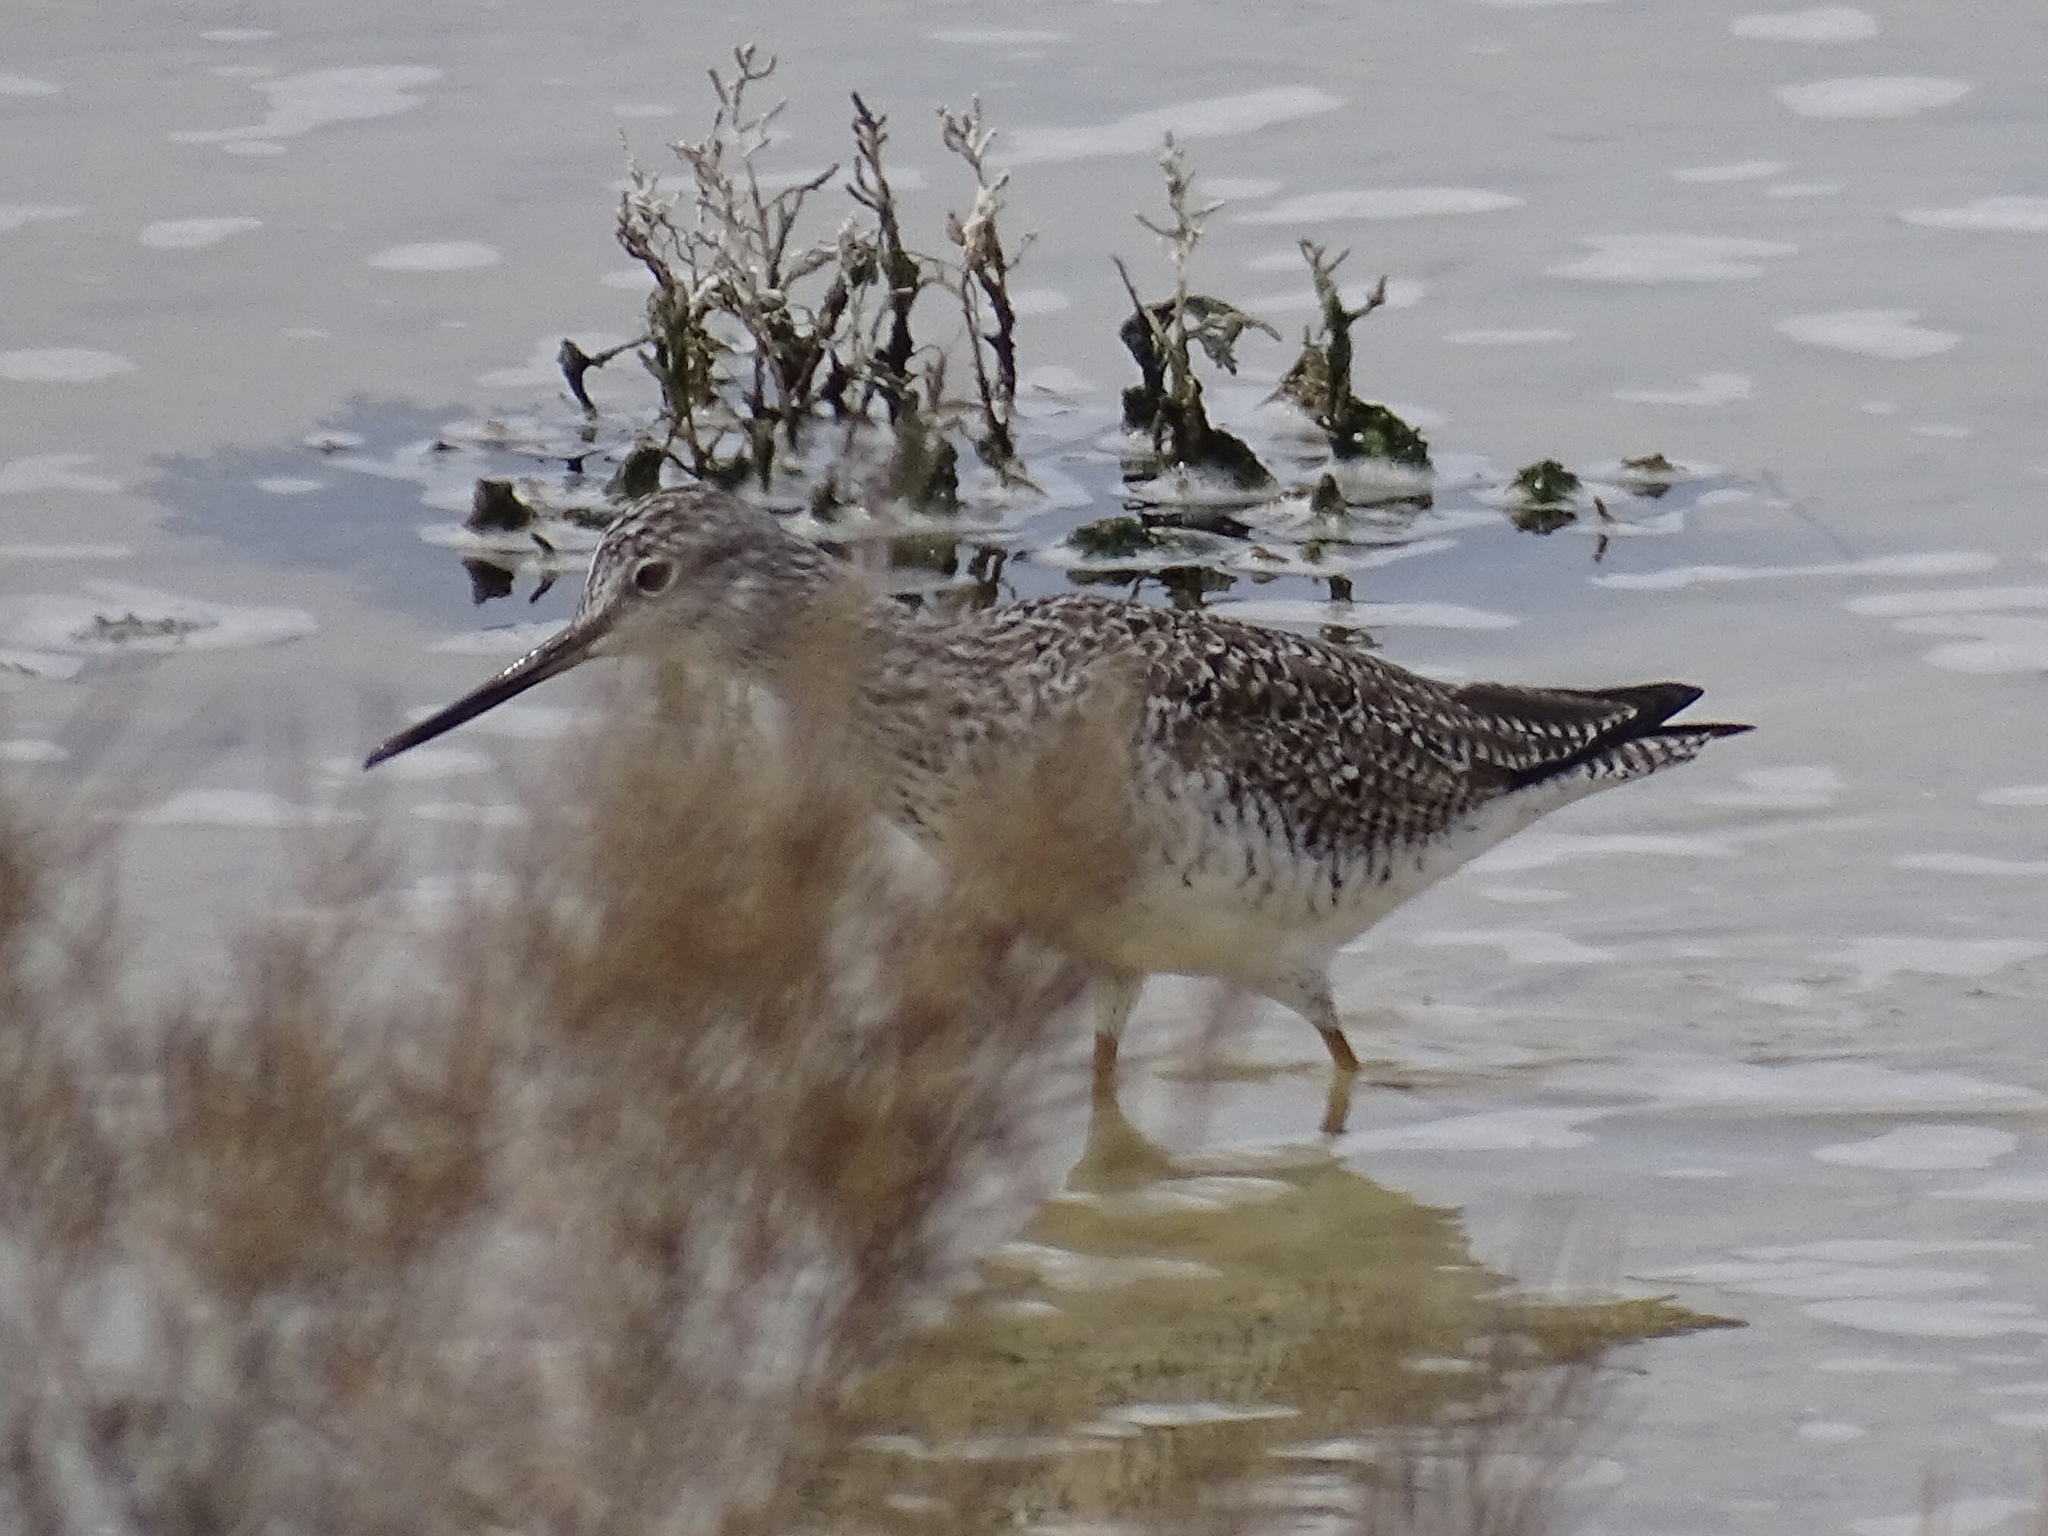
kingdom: Animalia
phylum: Chordata
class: Aves
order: Charadriiformes
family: Scolopacidae
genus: Tringa
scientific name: Tringa melanoleuca
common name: Greater yellowlegs
